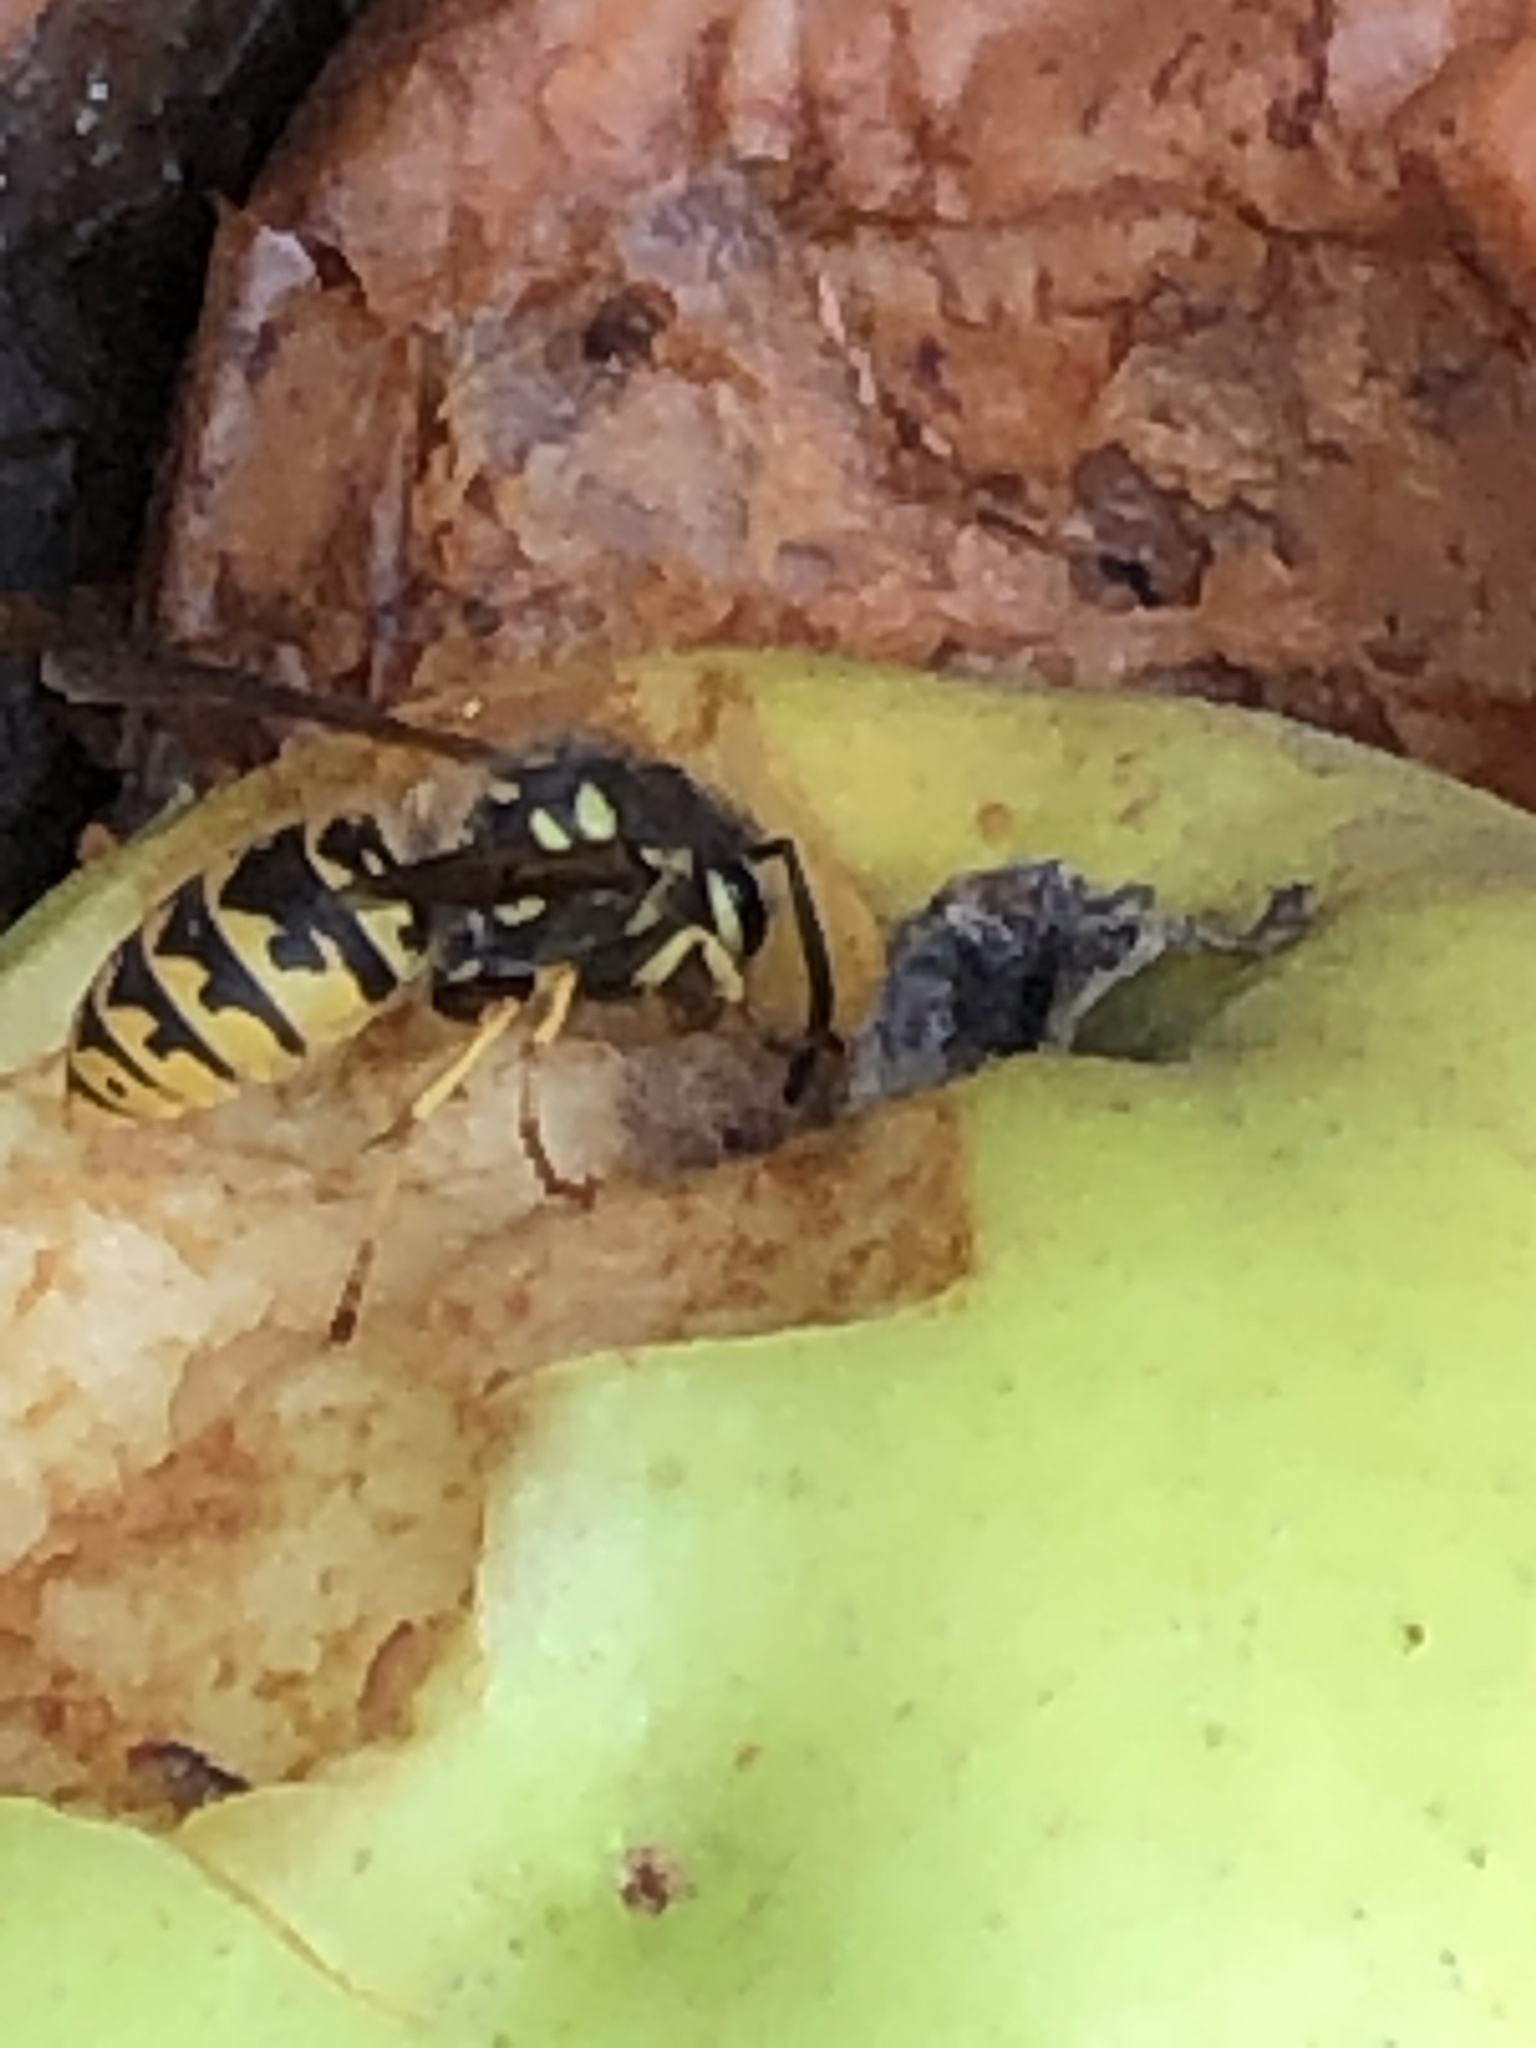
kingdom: Animalia
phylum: Arthropoda
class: Insecta
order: Hymenoptera
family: Vespidae
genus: Vespula
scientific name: Vespula germanica
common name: German wasp
